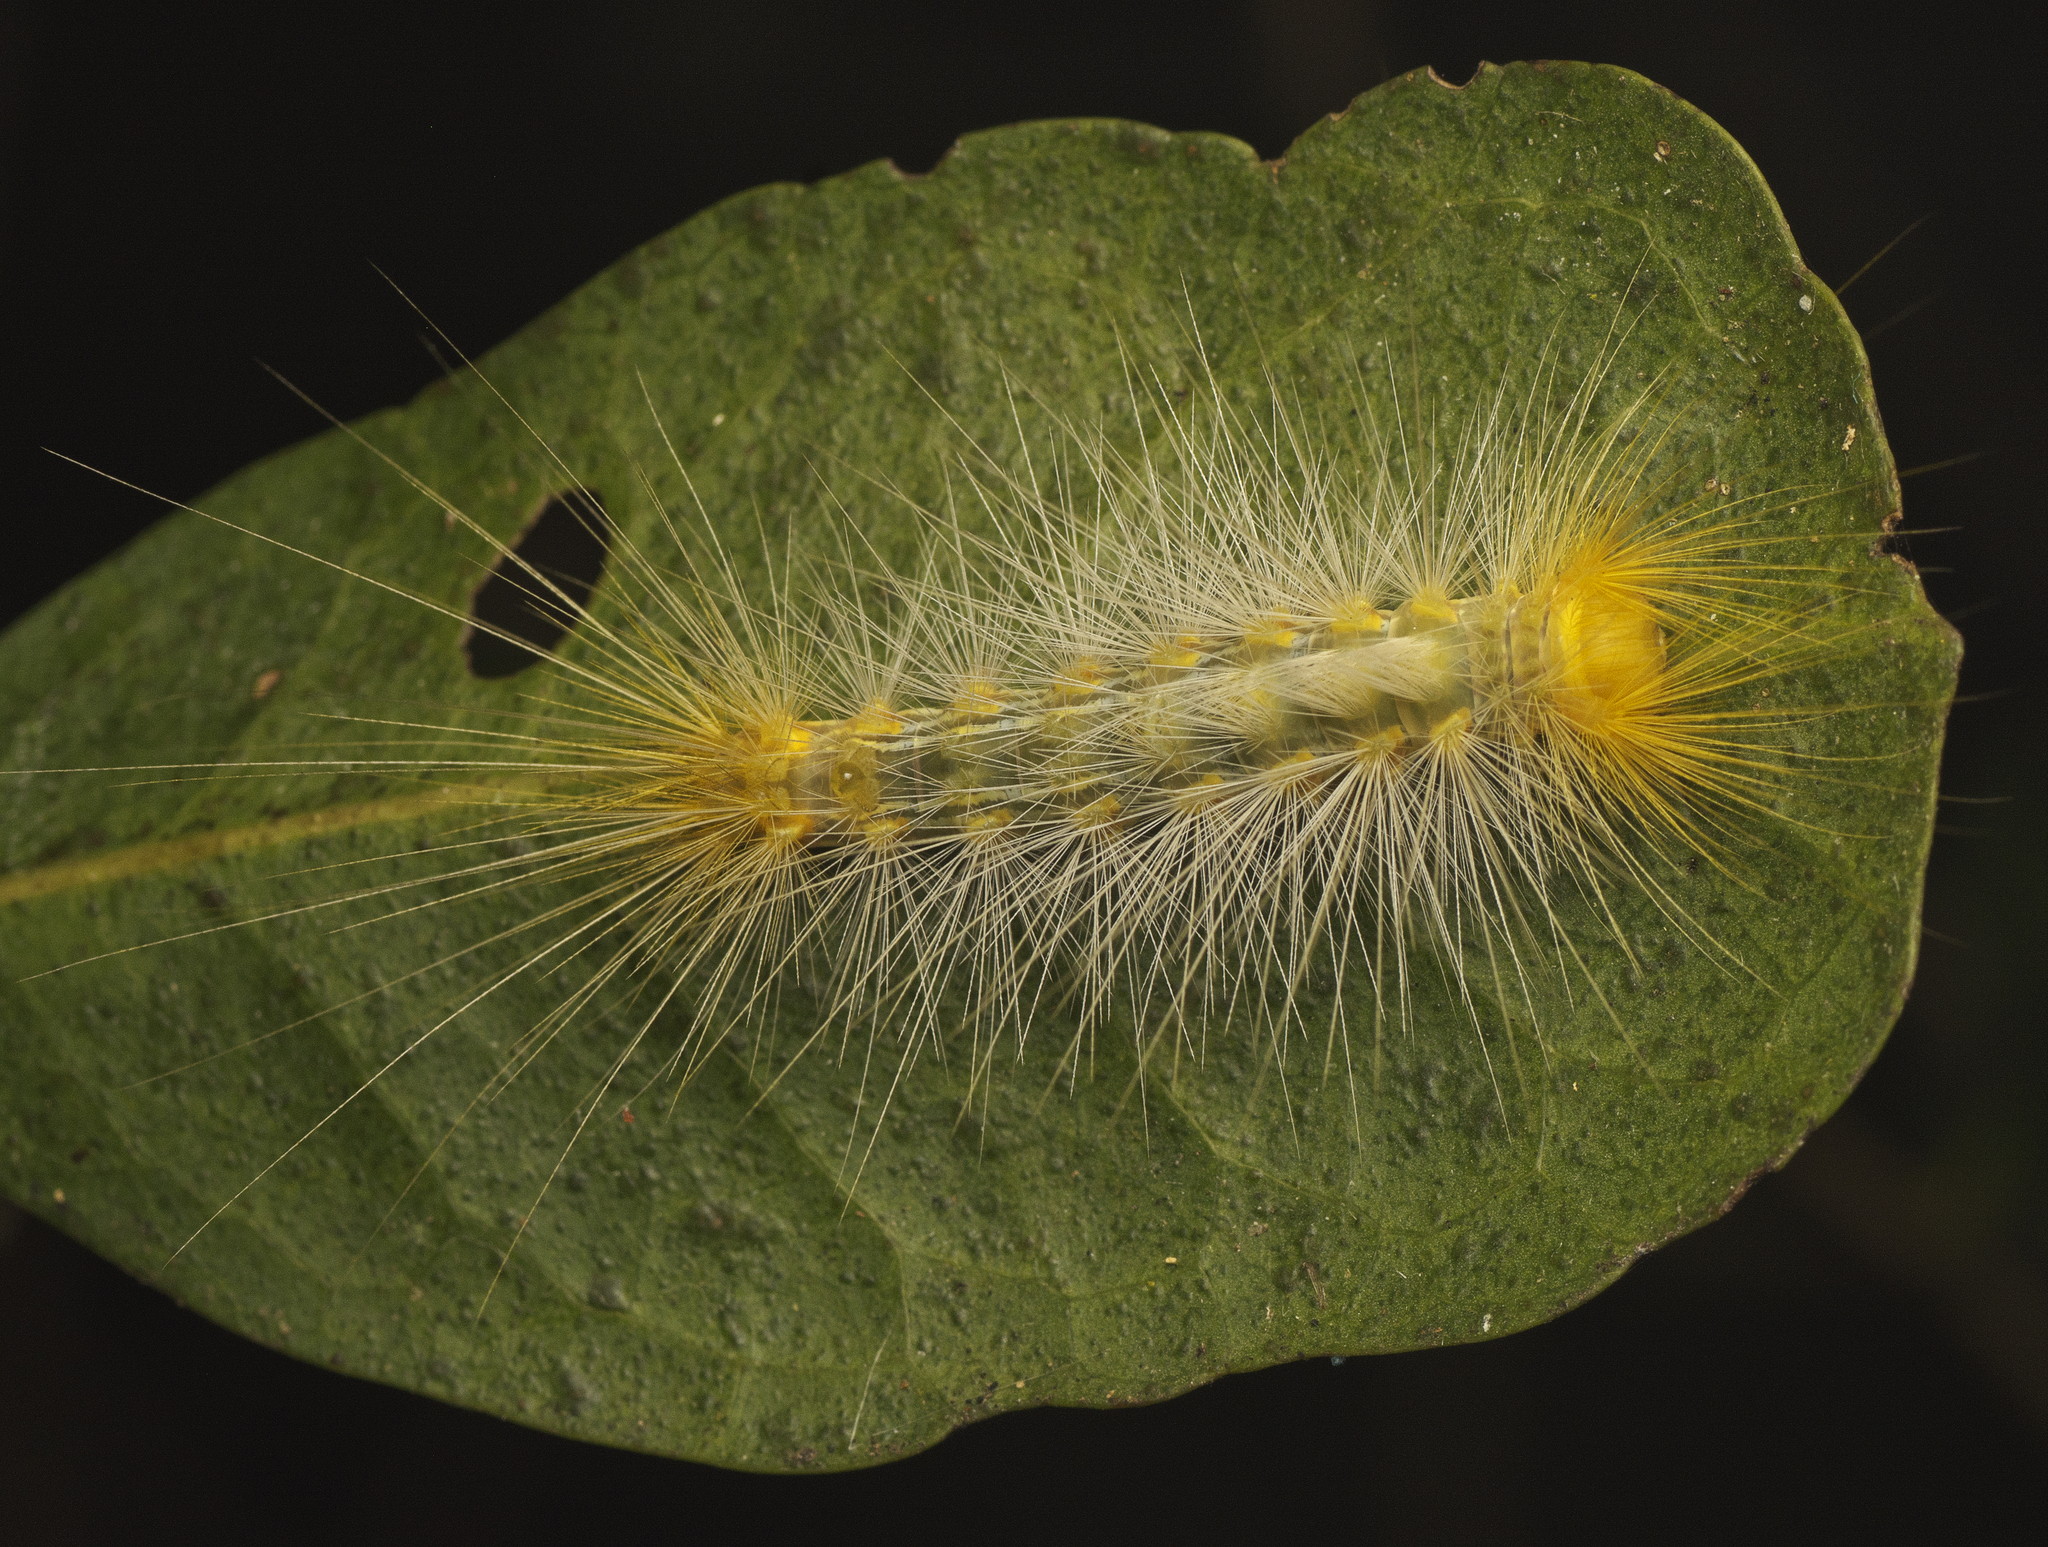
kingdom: Animalia
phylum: Arthropoda
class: Insecta
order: Lepidoptera
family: Erebidae
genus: Calliteara
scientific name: Calliteara pura
